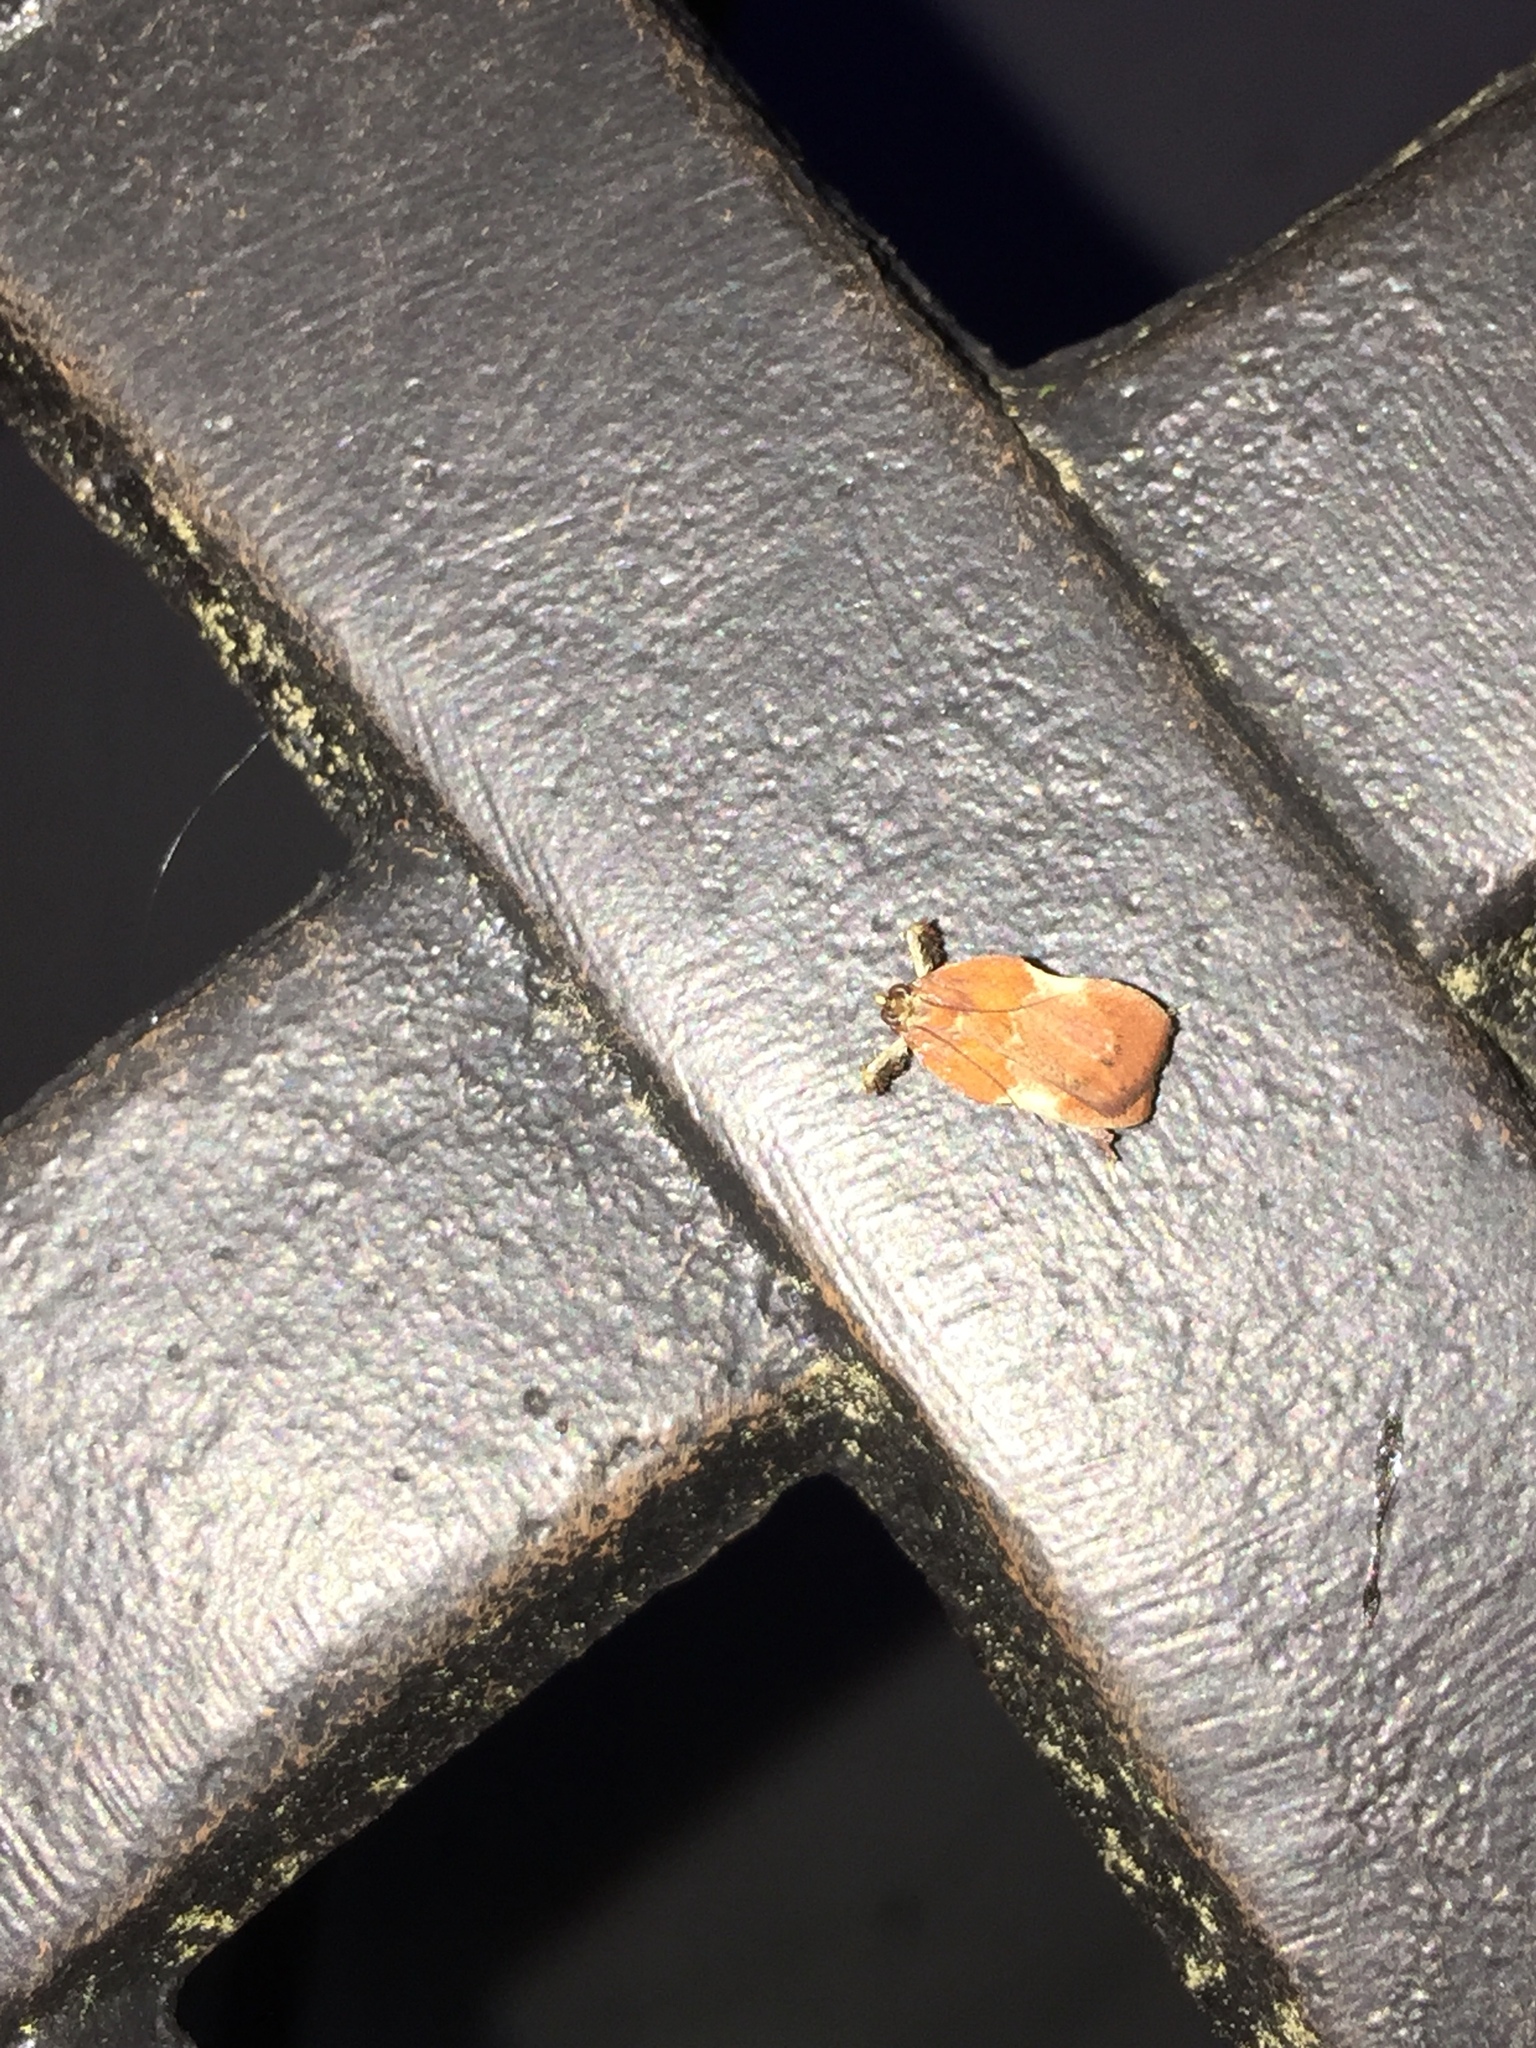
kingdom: Animalia
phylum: Arthropoda
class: Insecta
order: Lepidoptera
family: Pyralidae
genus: Galasa
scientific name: Galasa nigrinodis
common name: Boxwood leaftier moth
